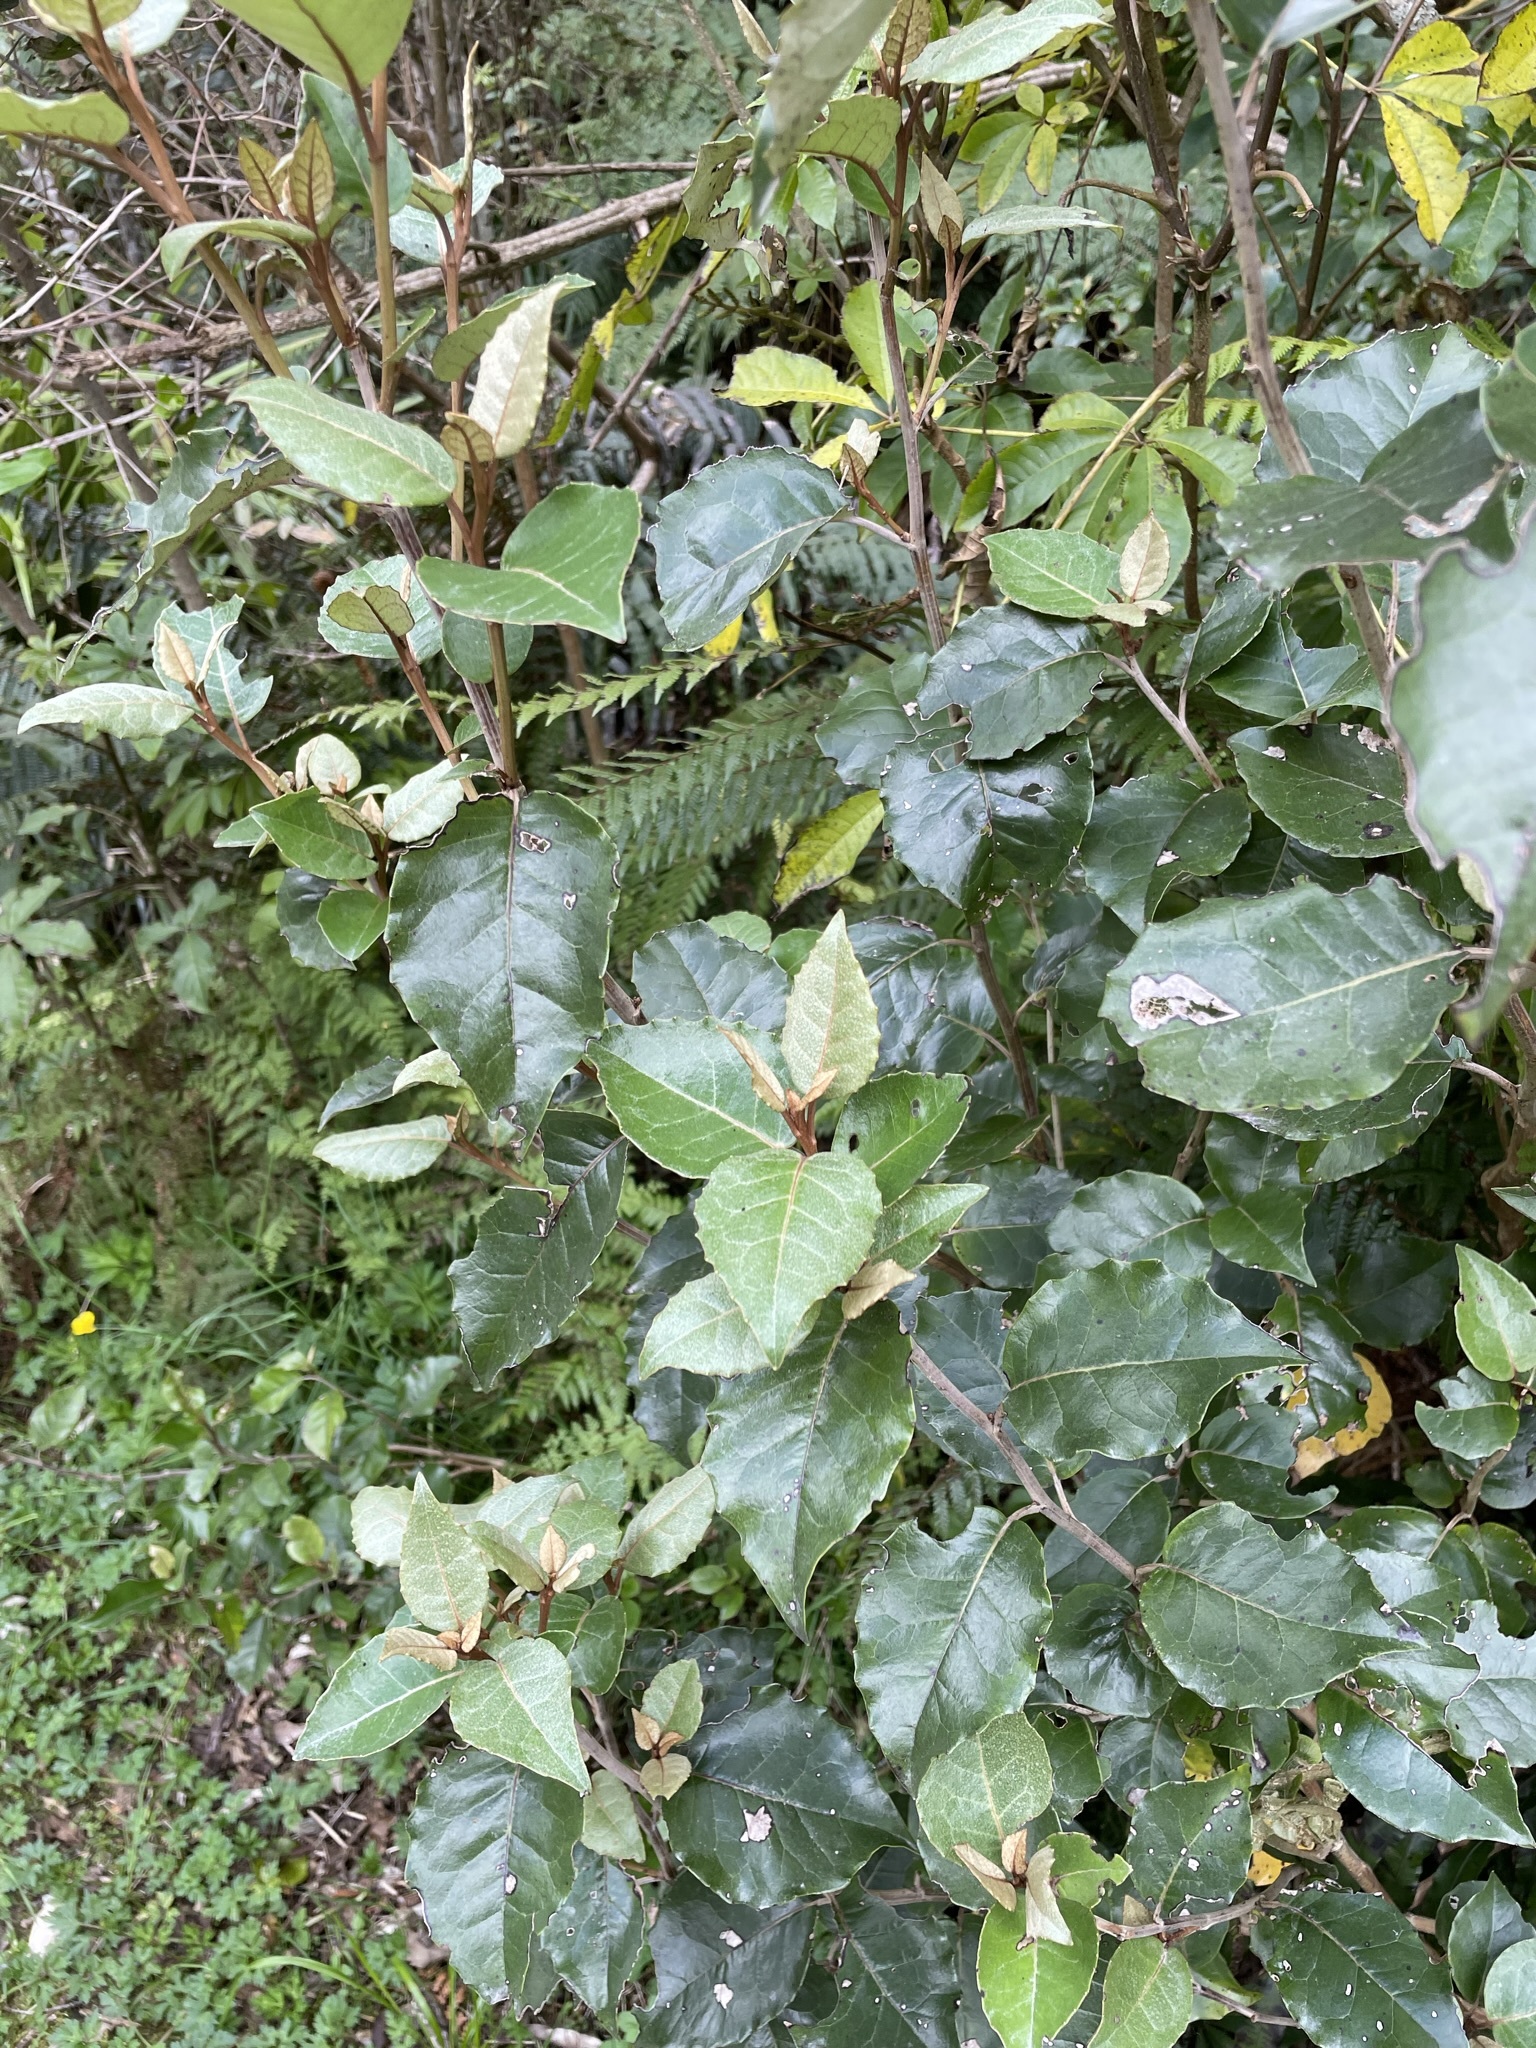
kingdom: Plantae
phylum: Tracheophyta
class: Magnoliopsida
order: Asterales
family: Asteraceae
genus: Olearia
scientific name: Olearia arborescens
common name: Glossy tree daisy
